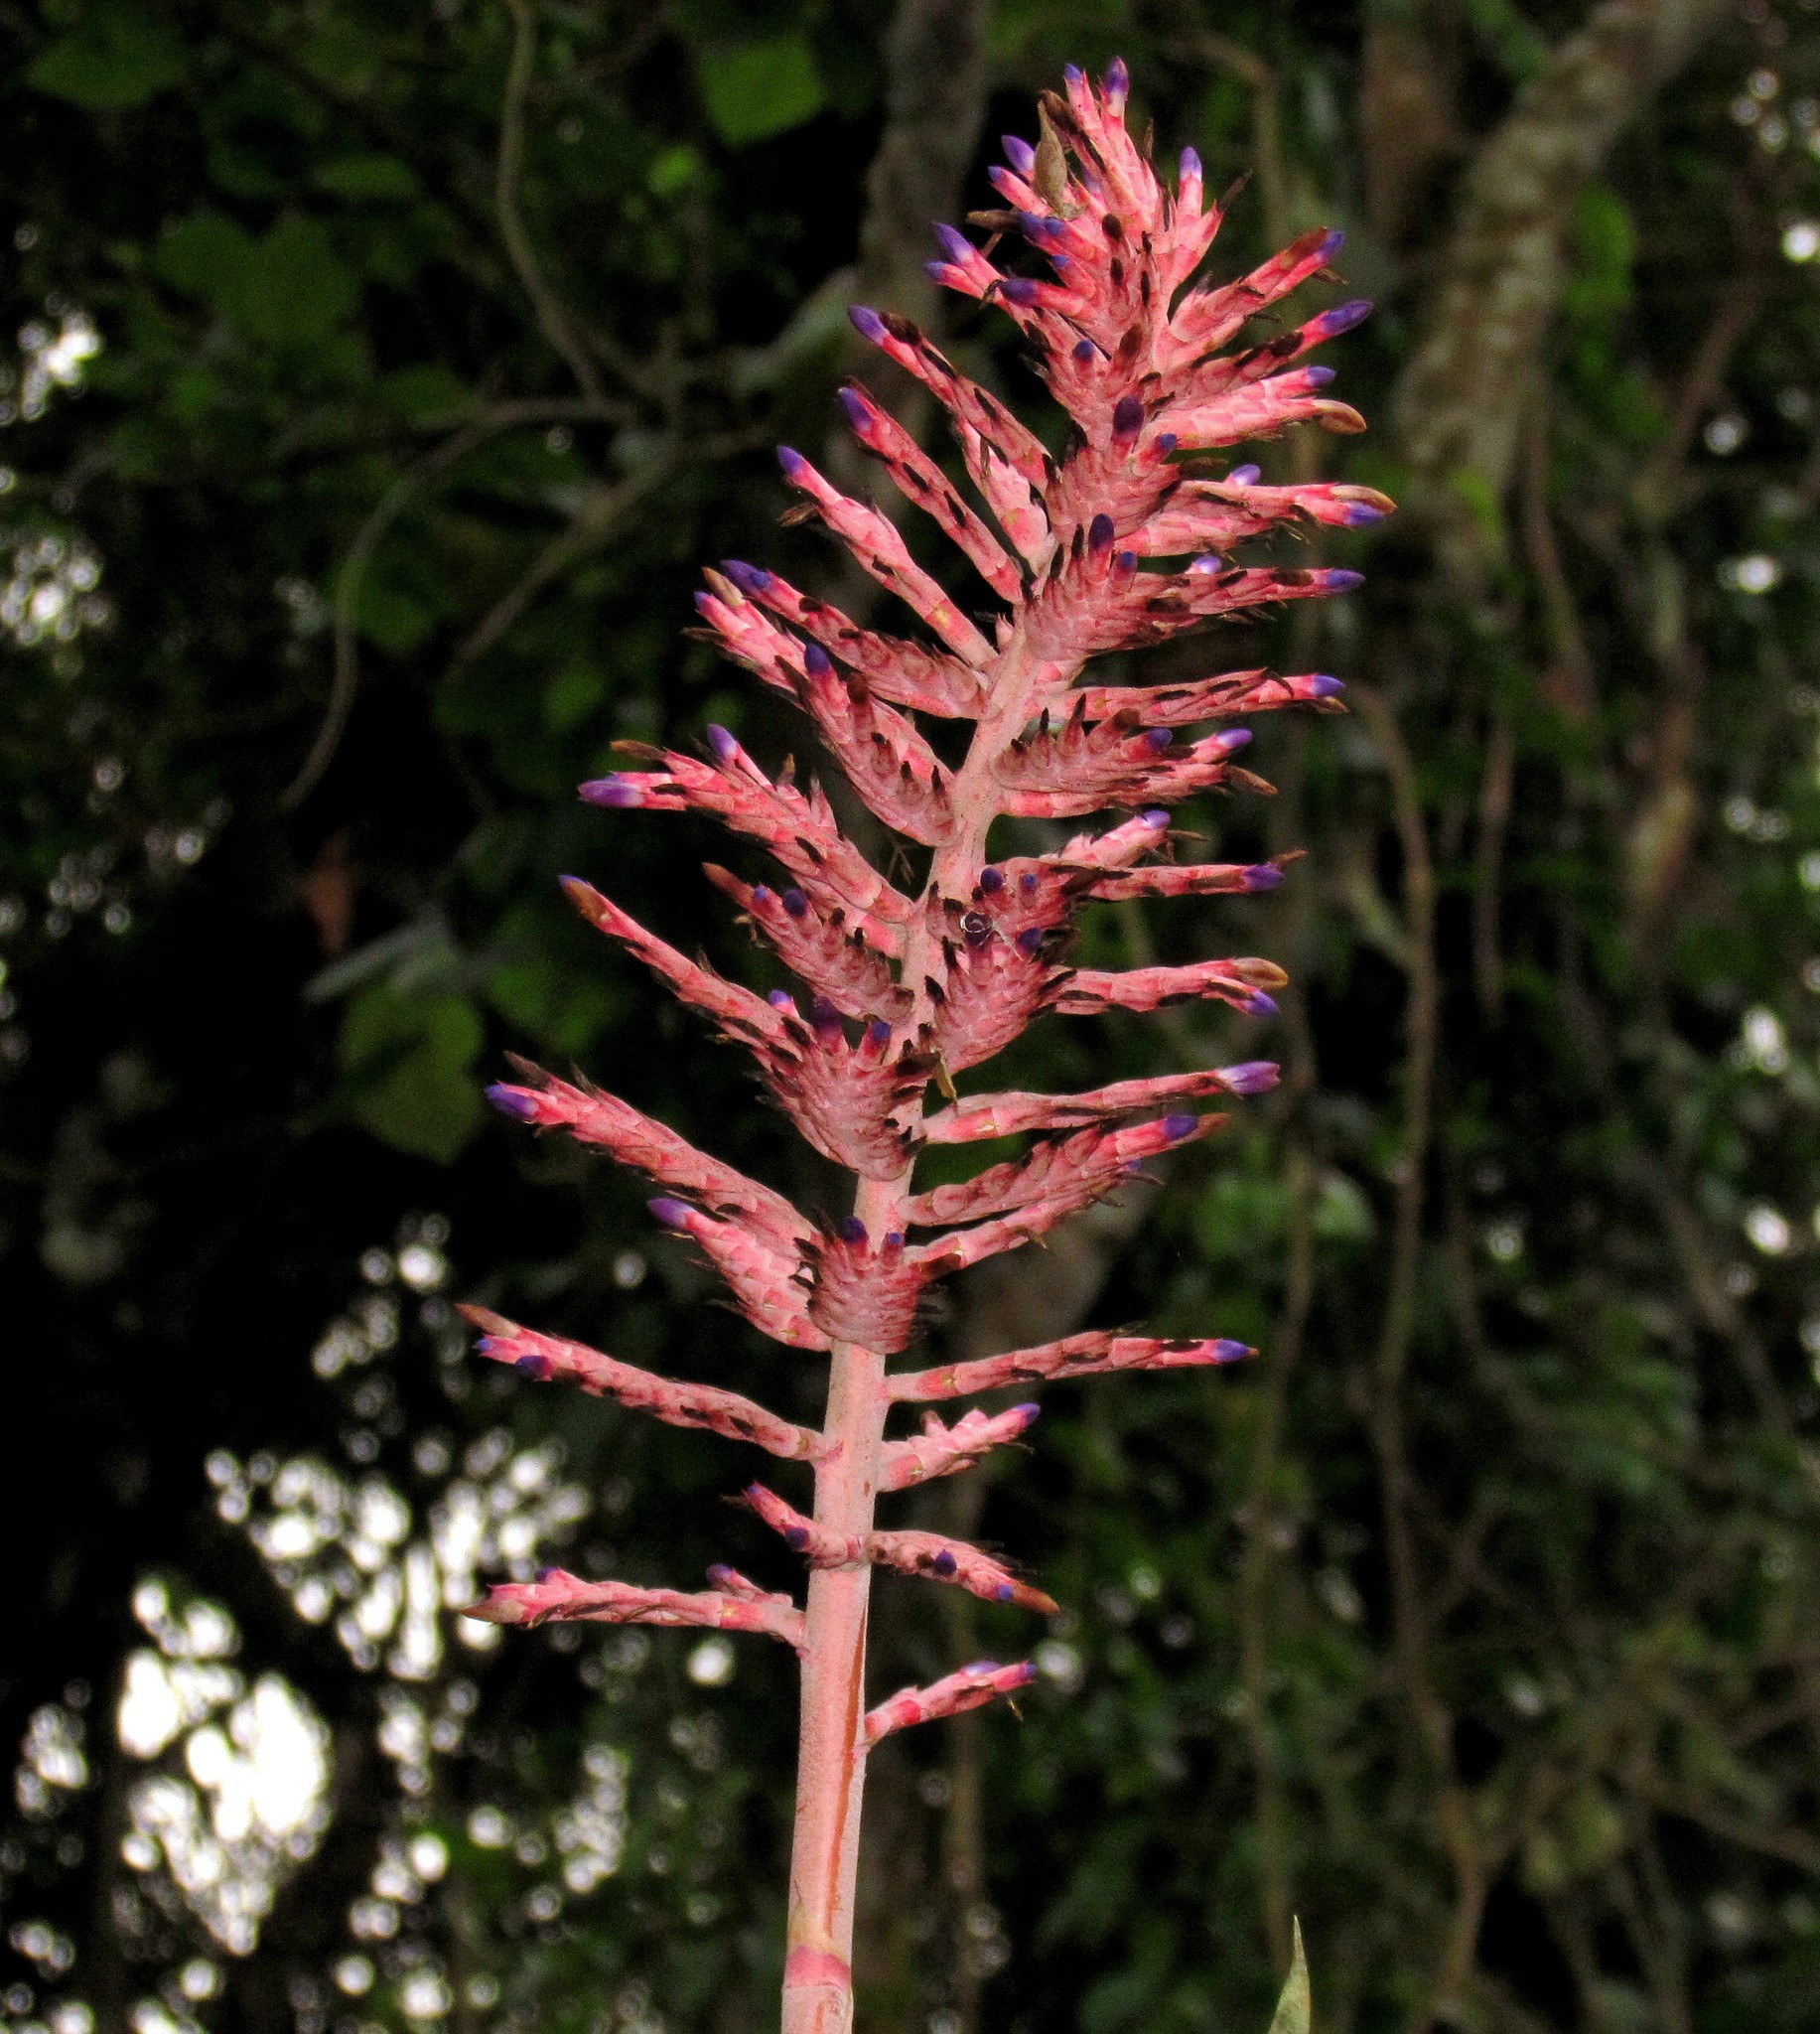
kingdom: Plantae
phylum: Tracheophyta
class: Liliopsida
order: Poales
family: Bromeliaceae
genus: Aechmea
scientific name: Aechmea distichantha
